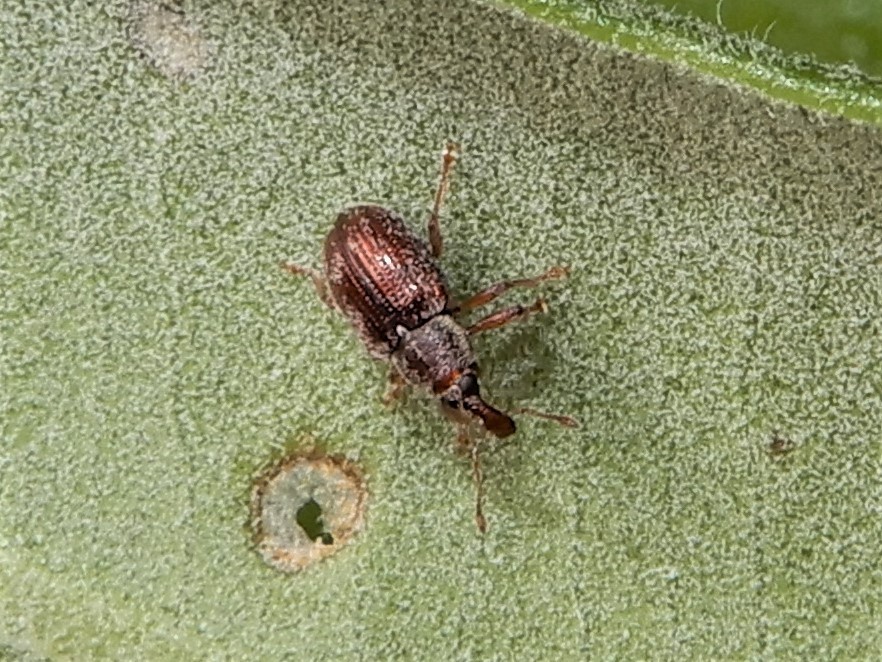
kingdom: Animalia
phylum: Arthropoda
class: Insecta
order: Coleoptera
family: Curculionidae
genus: Neomycta
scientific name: Neomycta rubida
